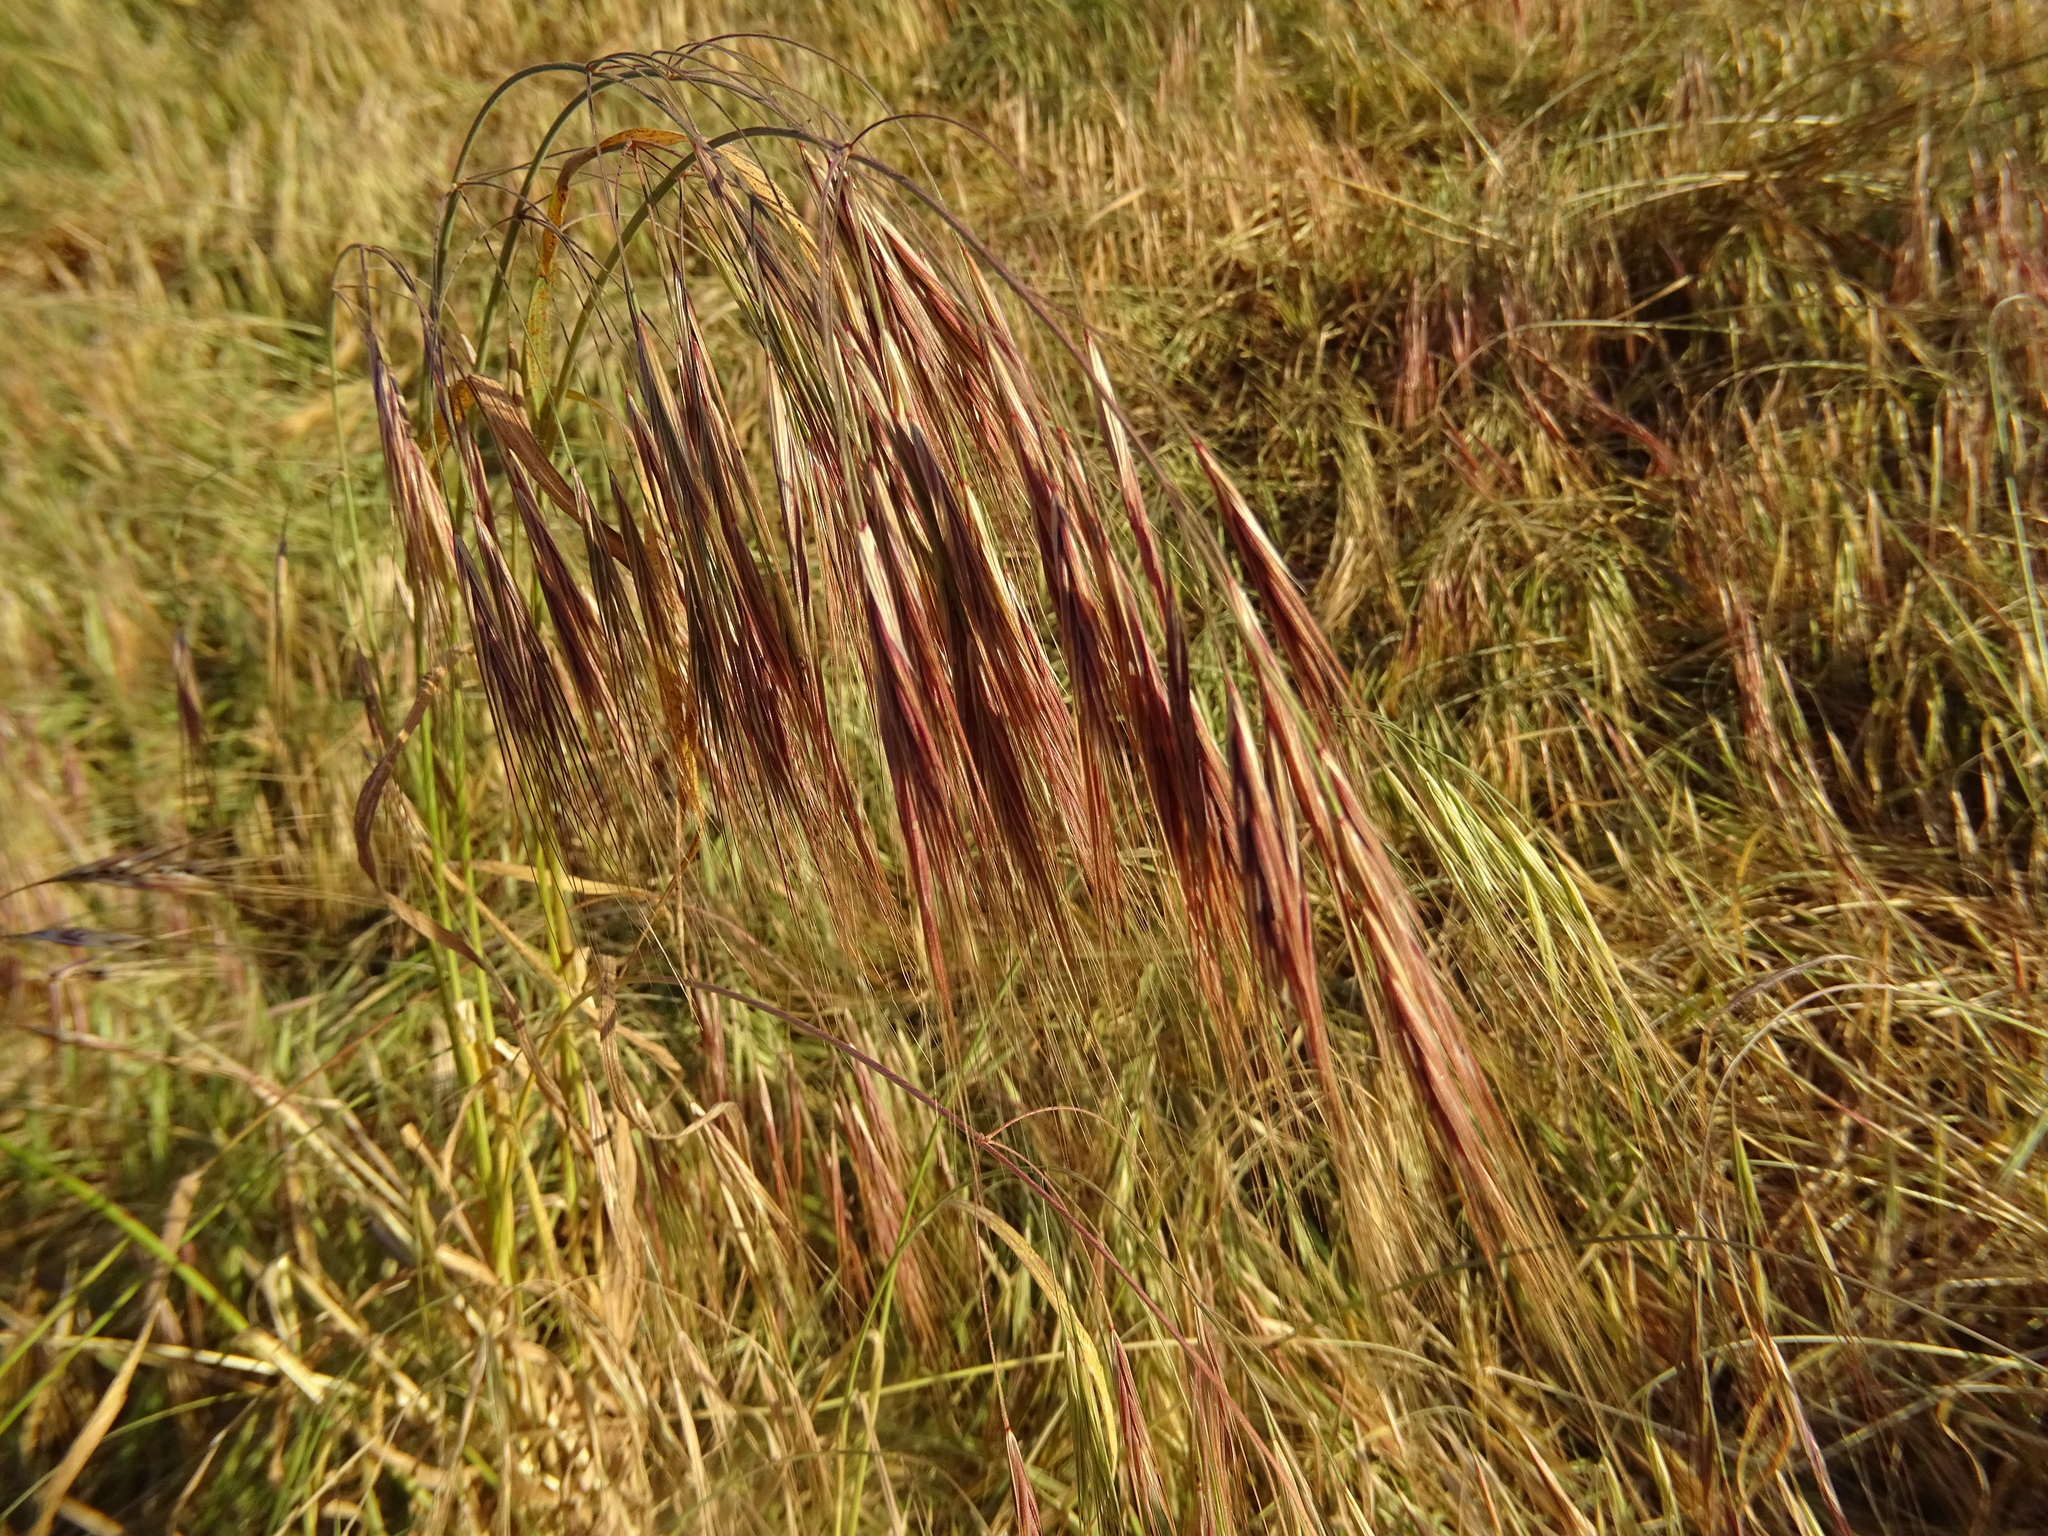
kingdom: Plantae
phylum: Tracheophyta
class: Liliopsida
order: Poales
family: Poaceae
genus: Bromus
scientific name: Bromus diandrus
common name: Ripgut brome
